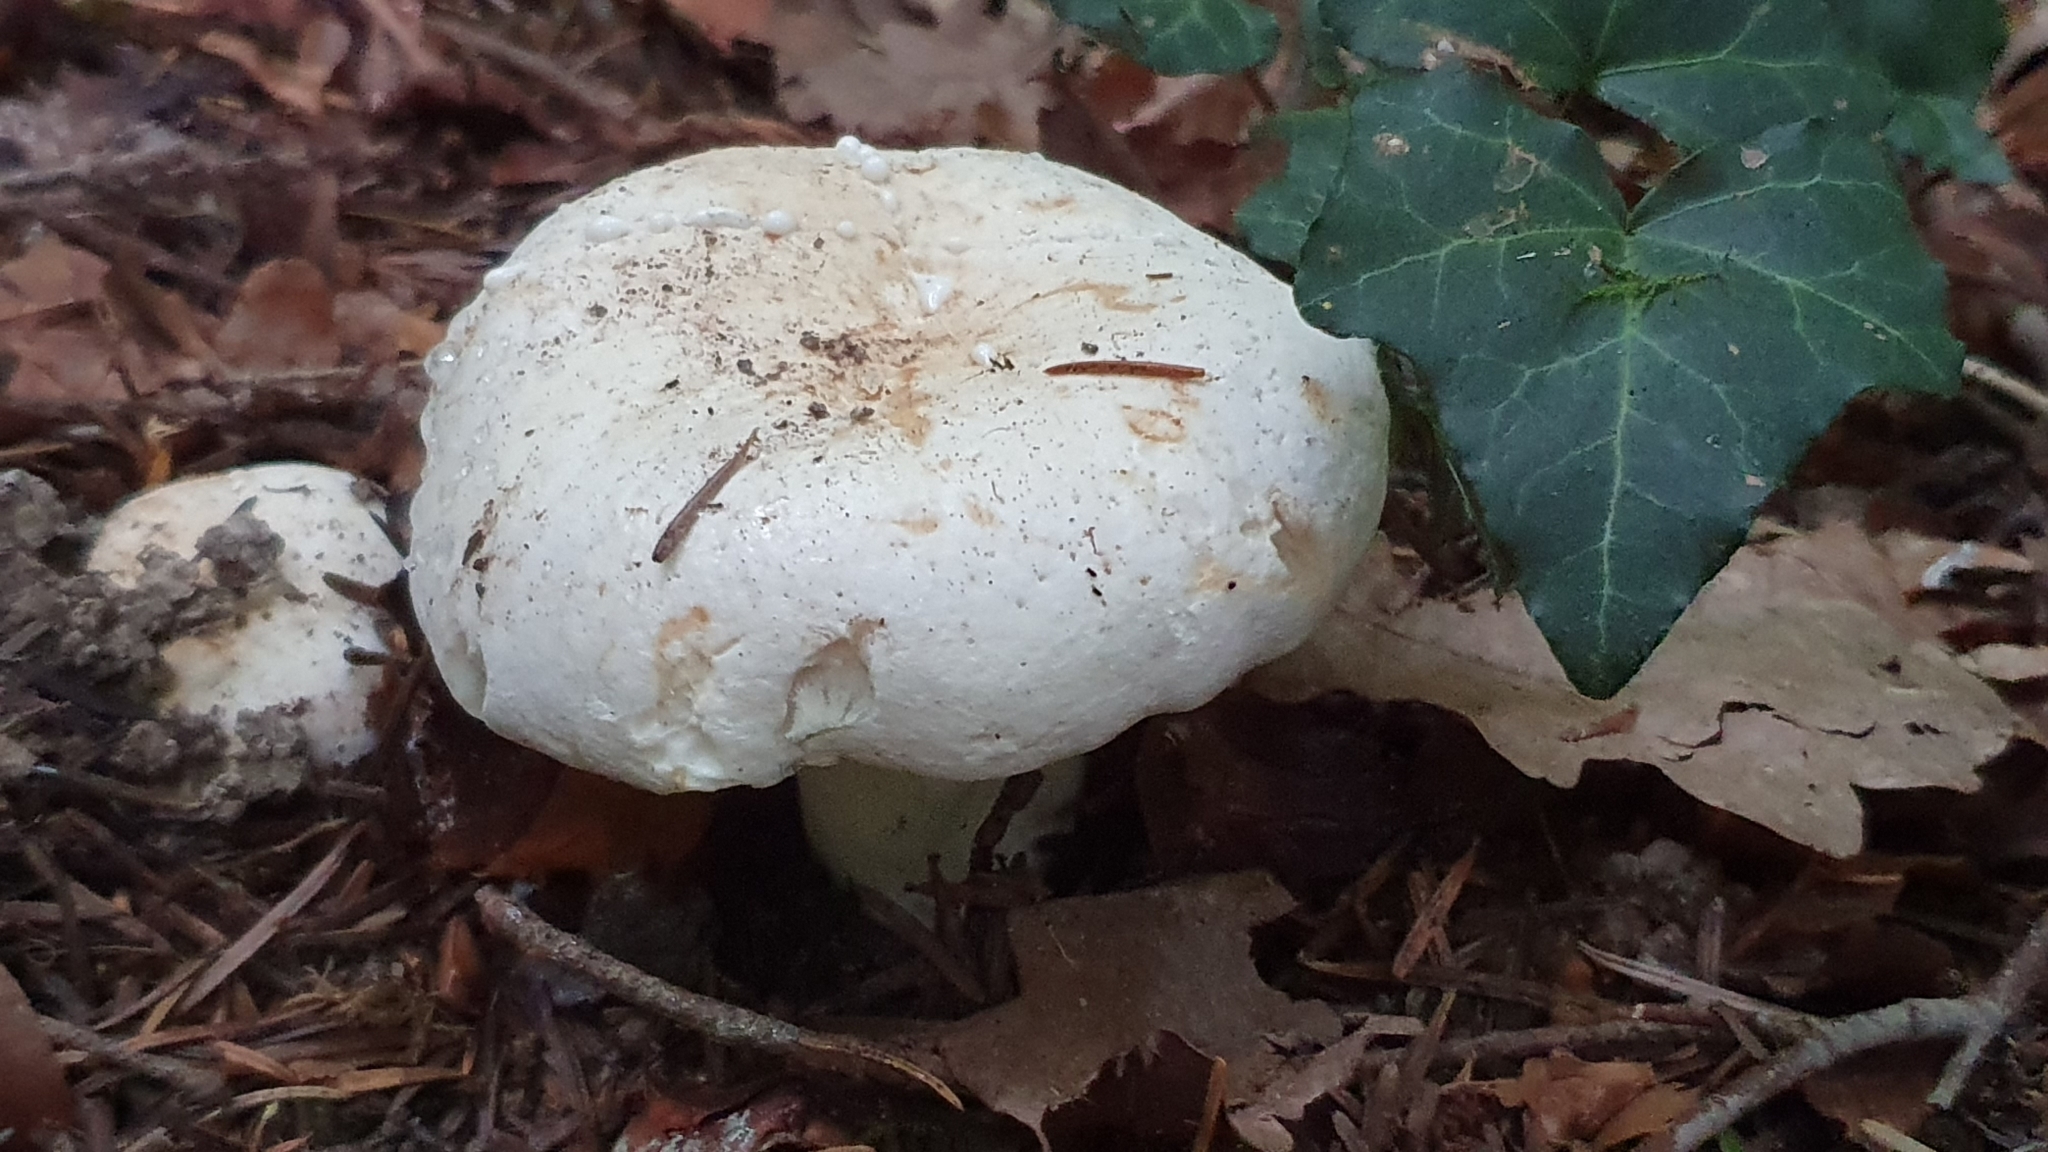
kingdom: Fungi
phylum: Basidiomycota
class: Agaricomycetes
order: Russulales
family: Russulaceae
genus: Lactifluus
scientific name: Lactifluus piperatus
